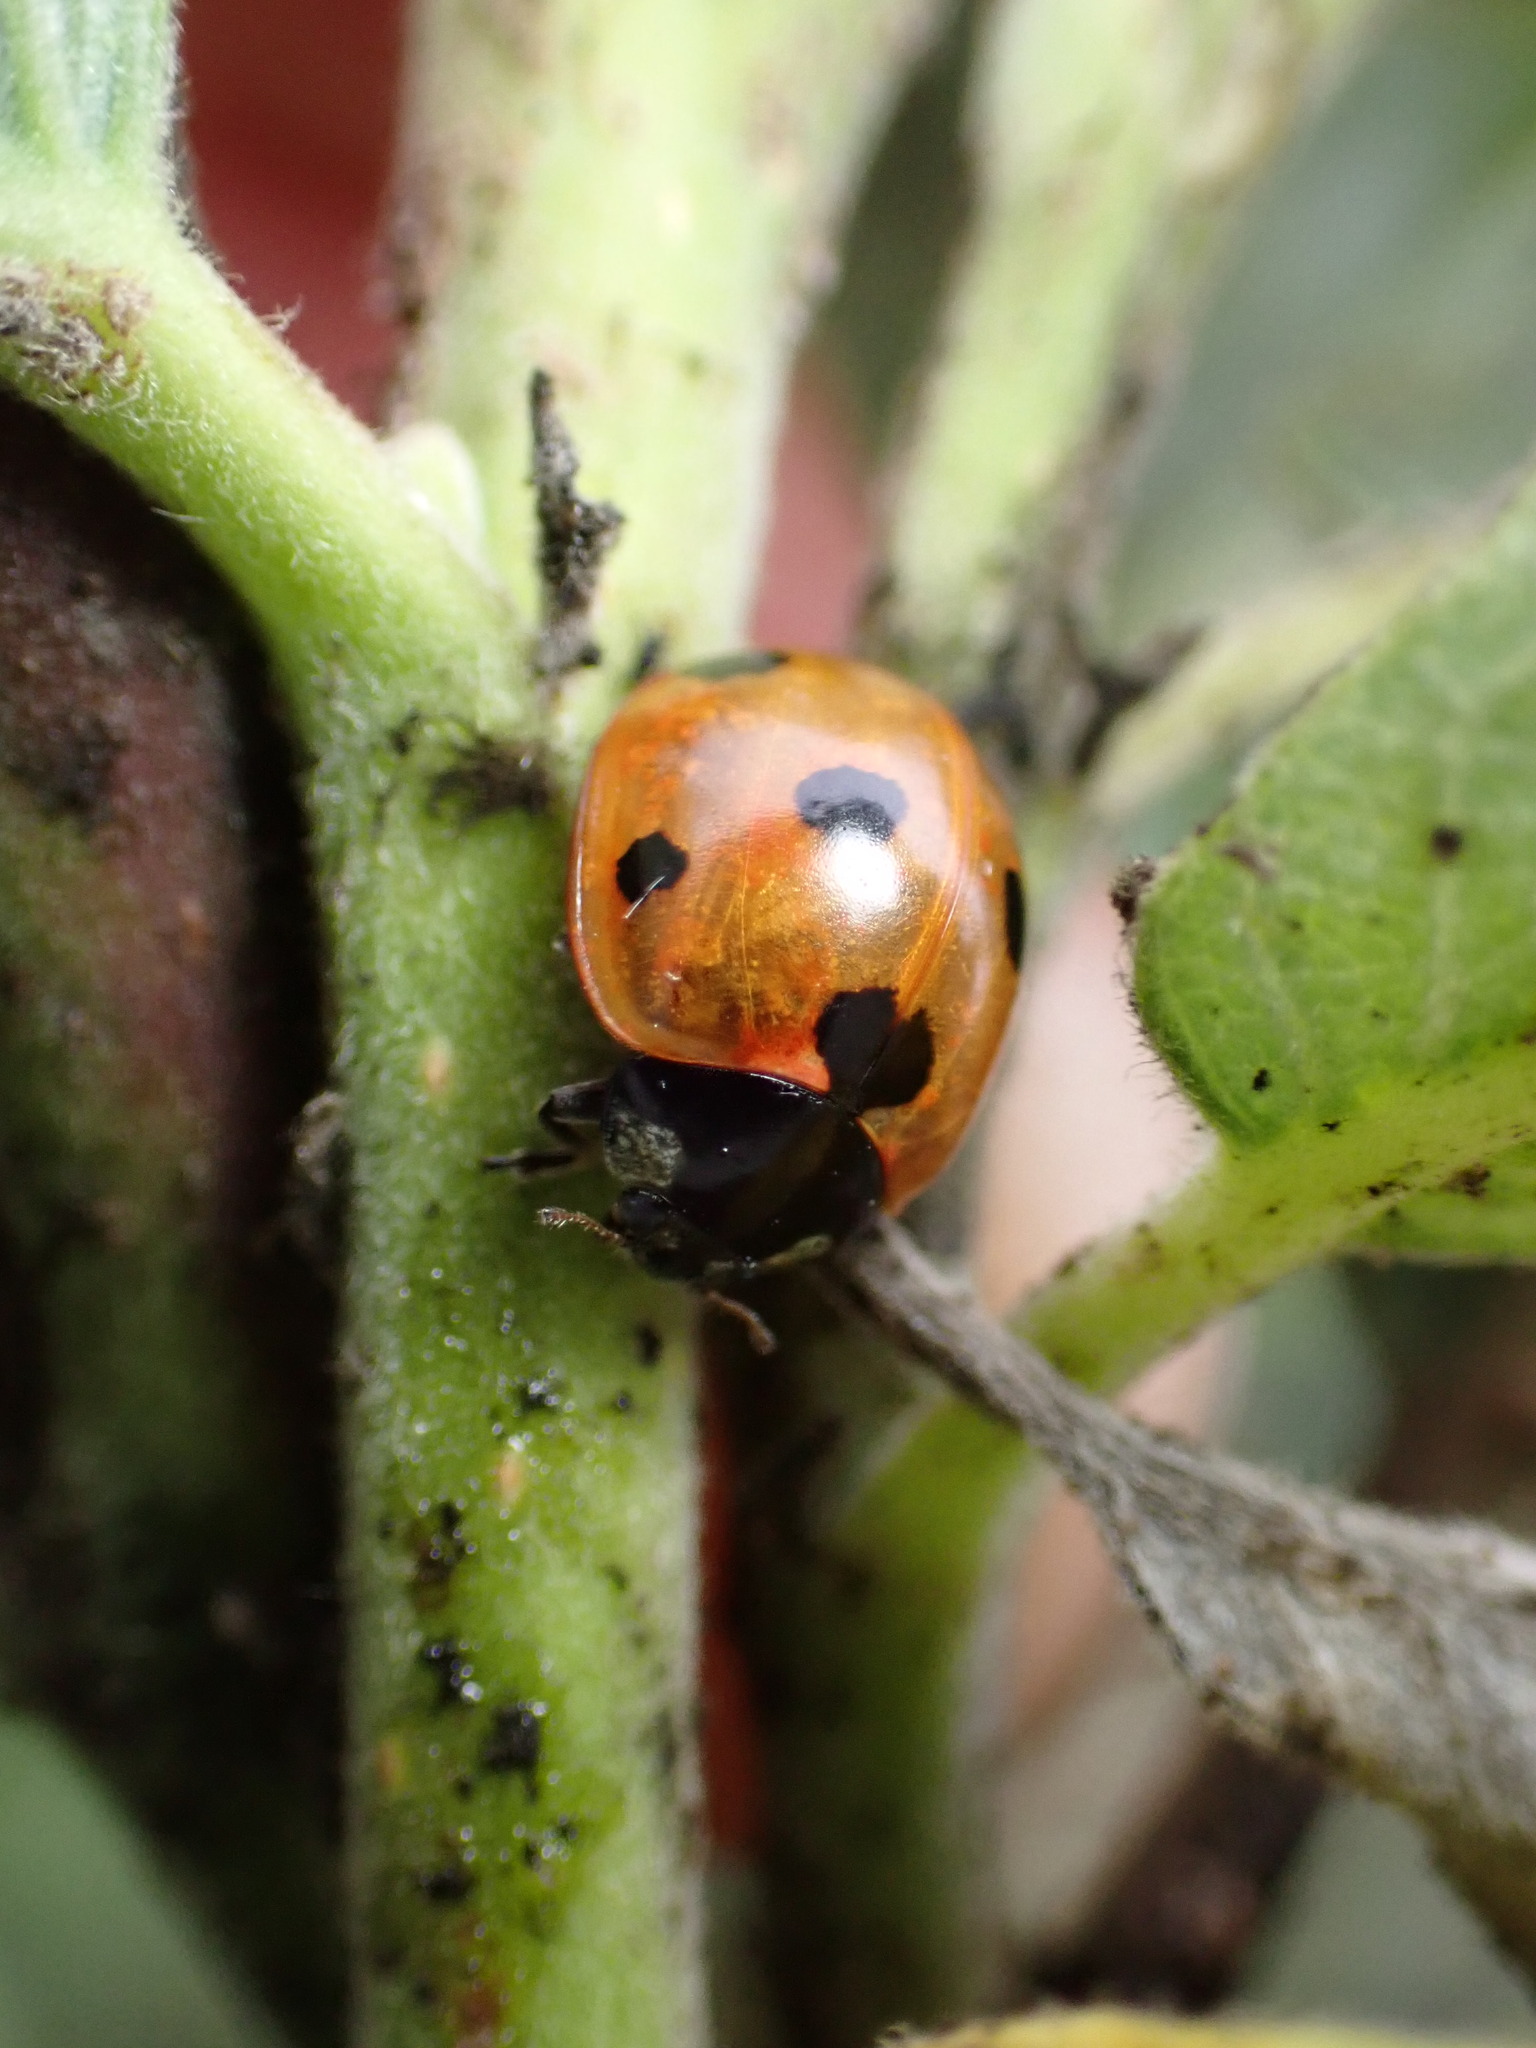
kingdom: Animalia
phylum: Arthropoda
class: Insecta
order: Coleoptera
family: Coccinellidae
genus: Coccinella
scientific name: Coccinella septempunctata
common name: Sevenspotted lady beetle
